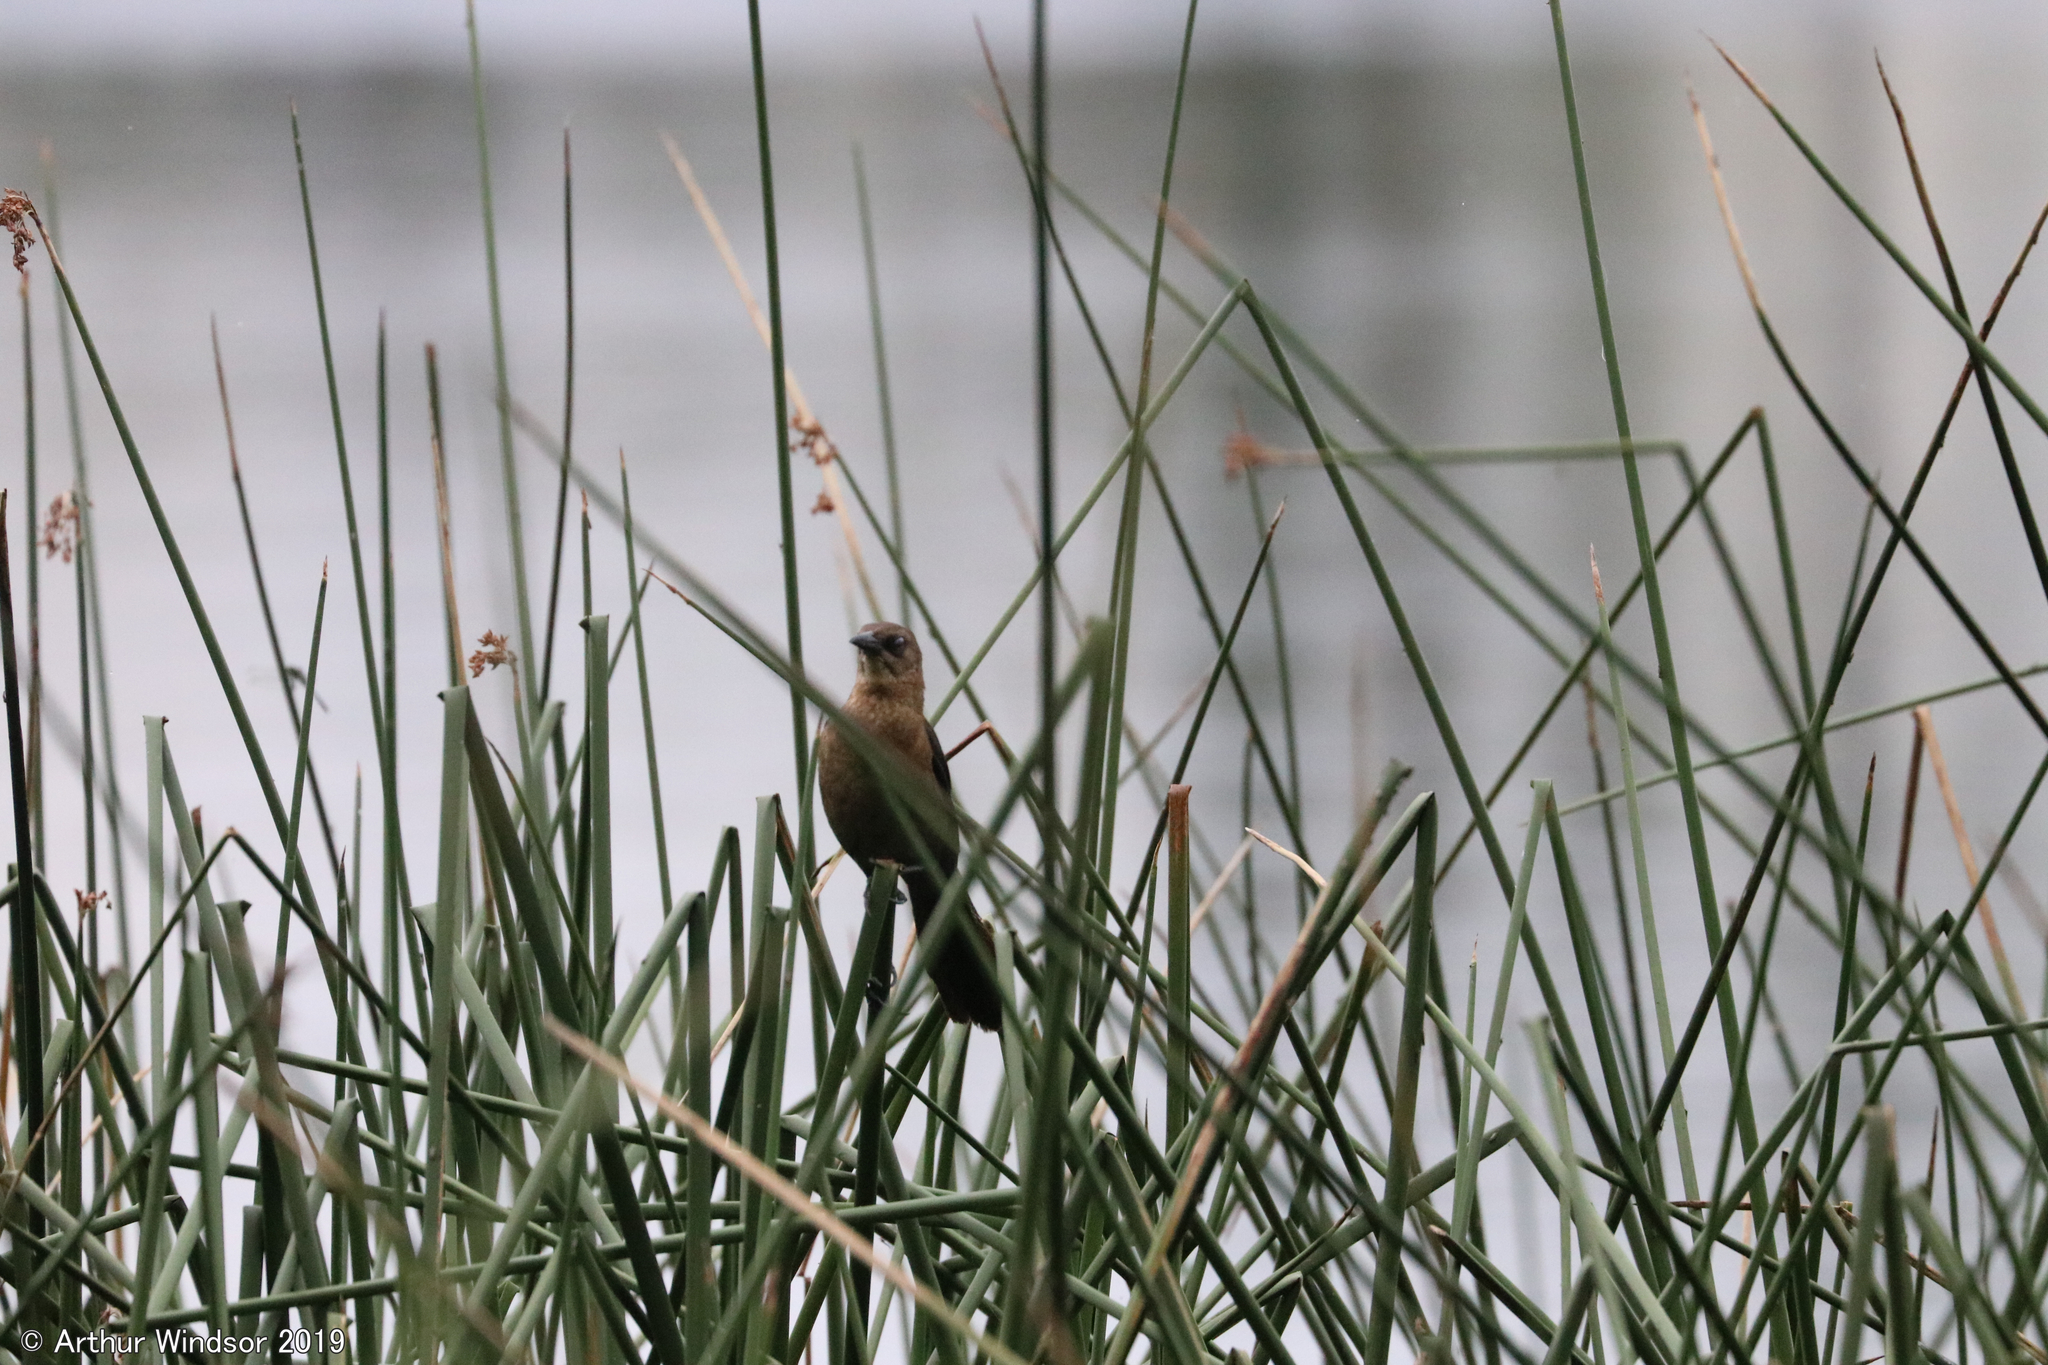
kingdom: Animalia
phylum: Chordata
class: Aves
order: Passeriformes
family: Icteridae
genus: Quiscalus
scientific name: Quiscalus major
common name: Boat-tailed grackle
